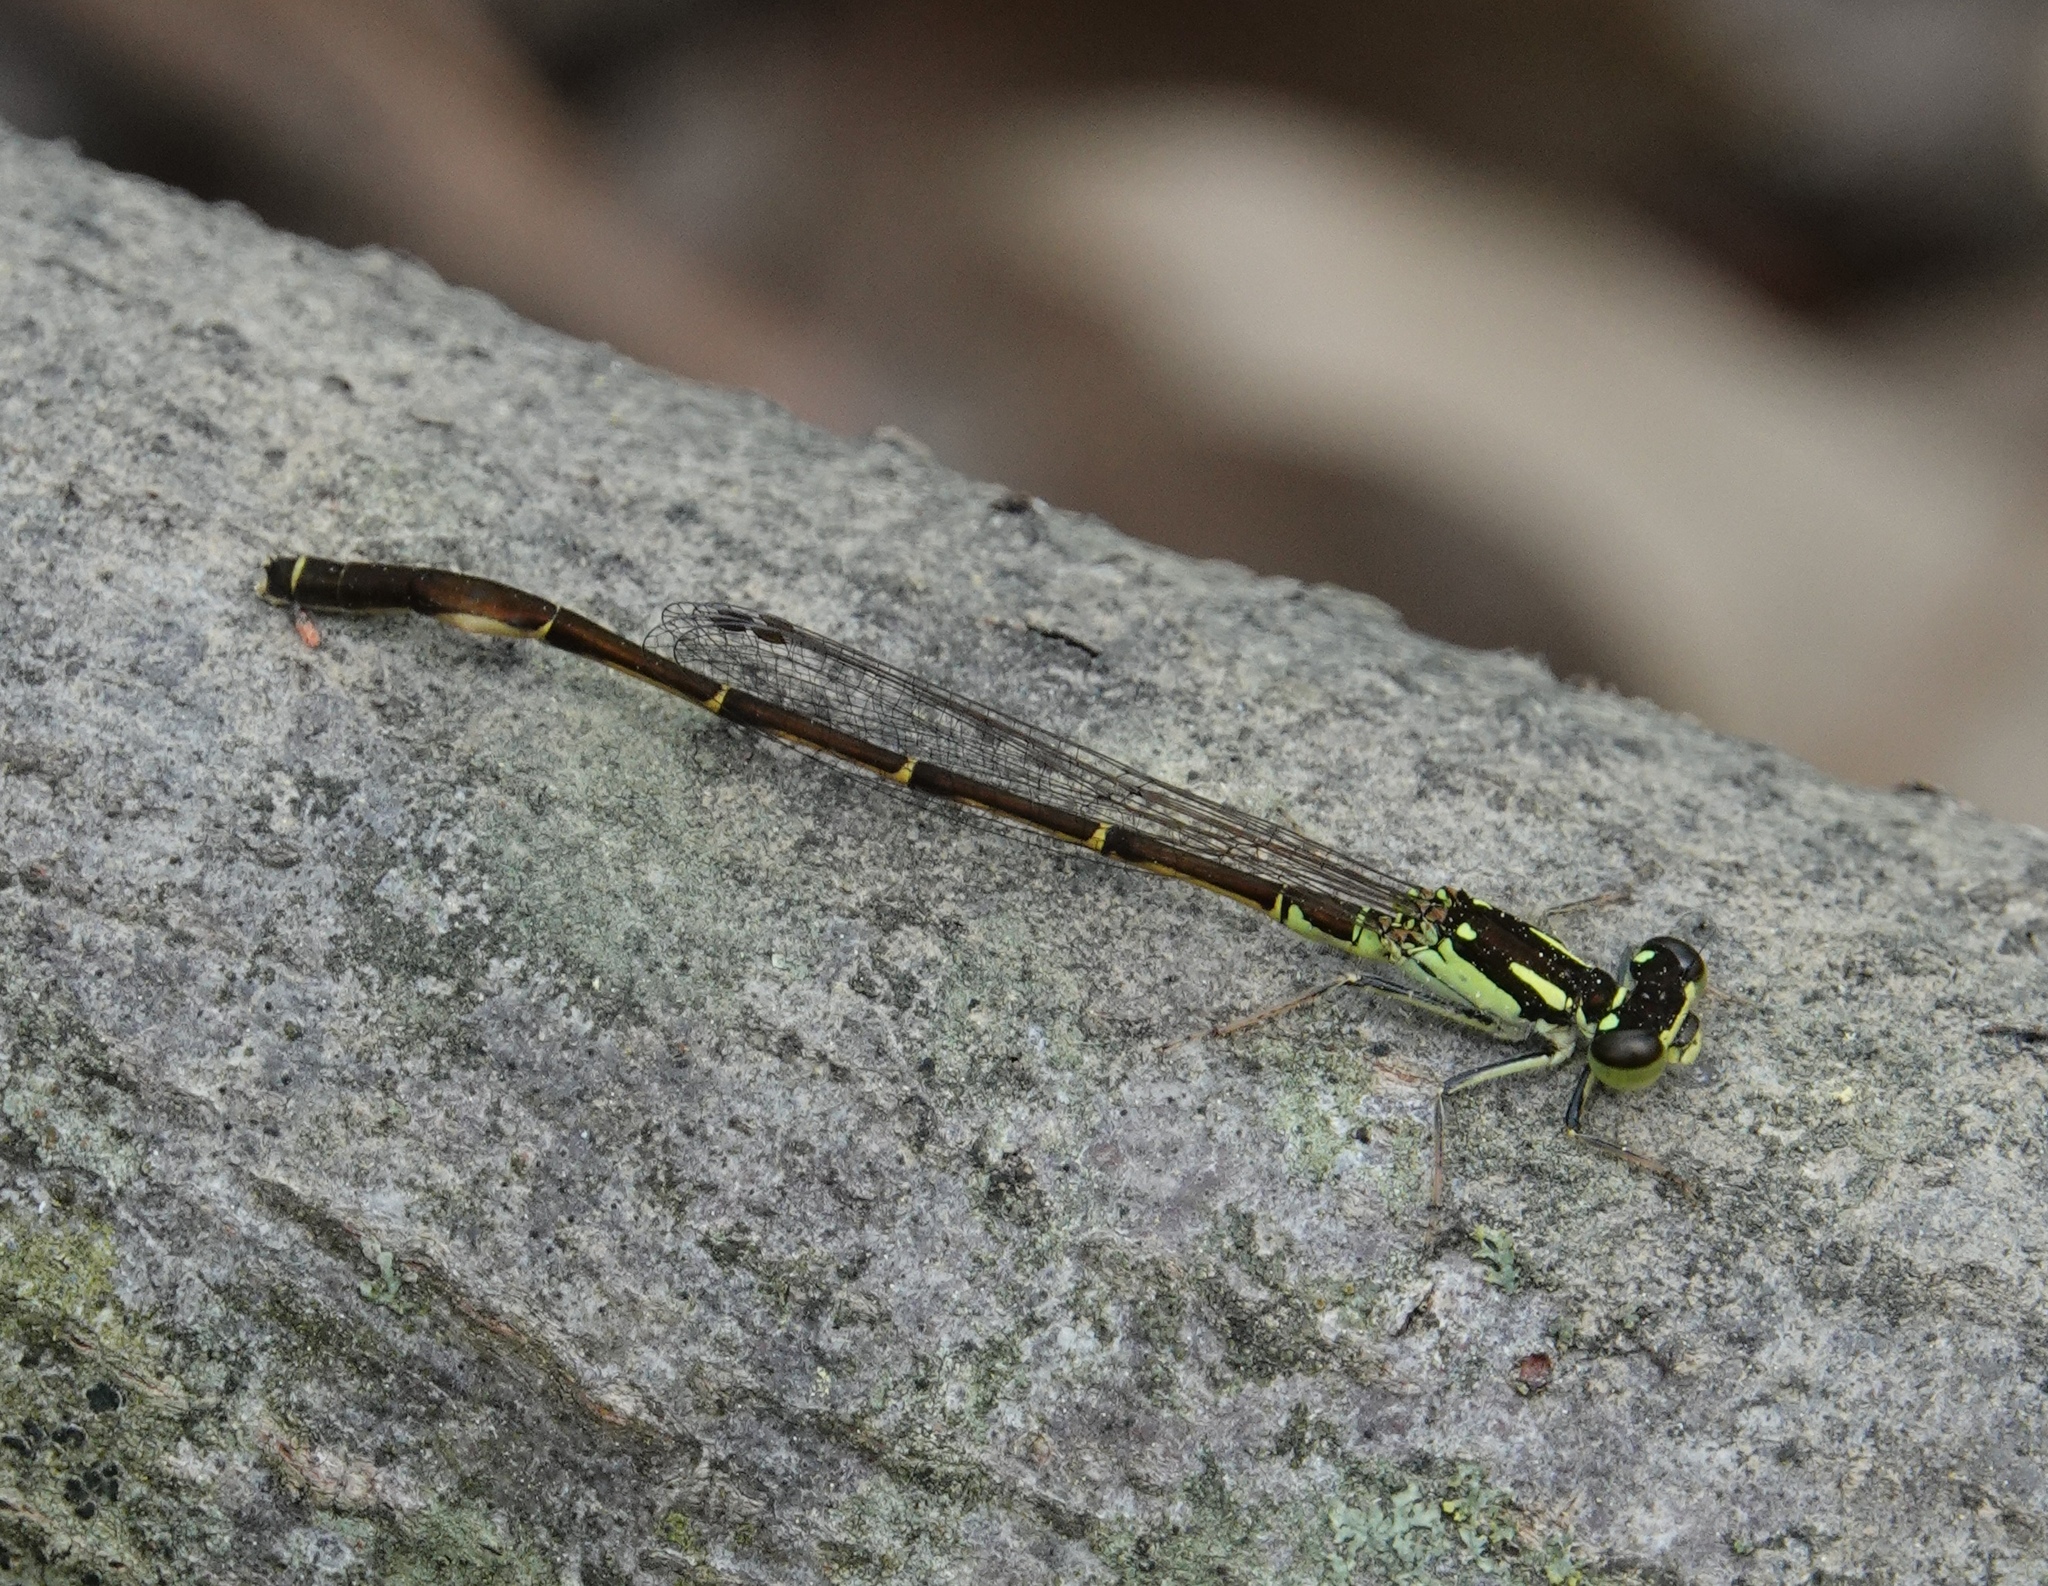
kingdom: Animalia
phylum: Arthropoda
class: Insecta
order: Odonata
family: Coenagrionidae
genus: Ischnura
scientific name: Ischnura posita
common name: Fragile forktail
